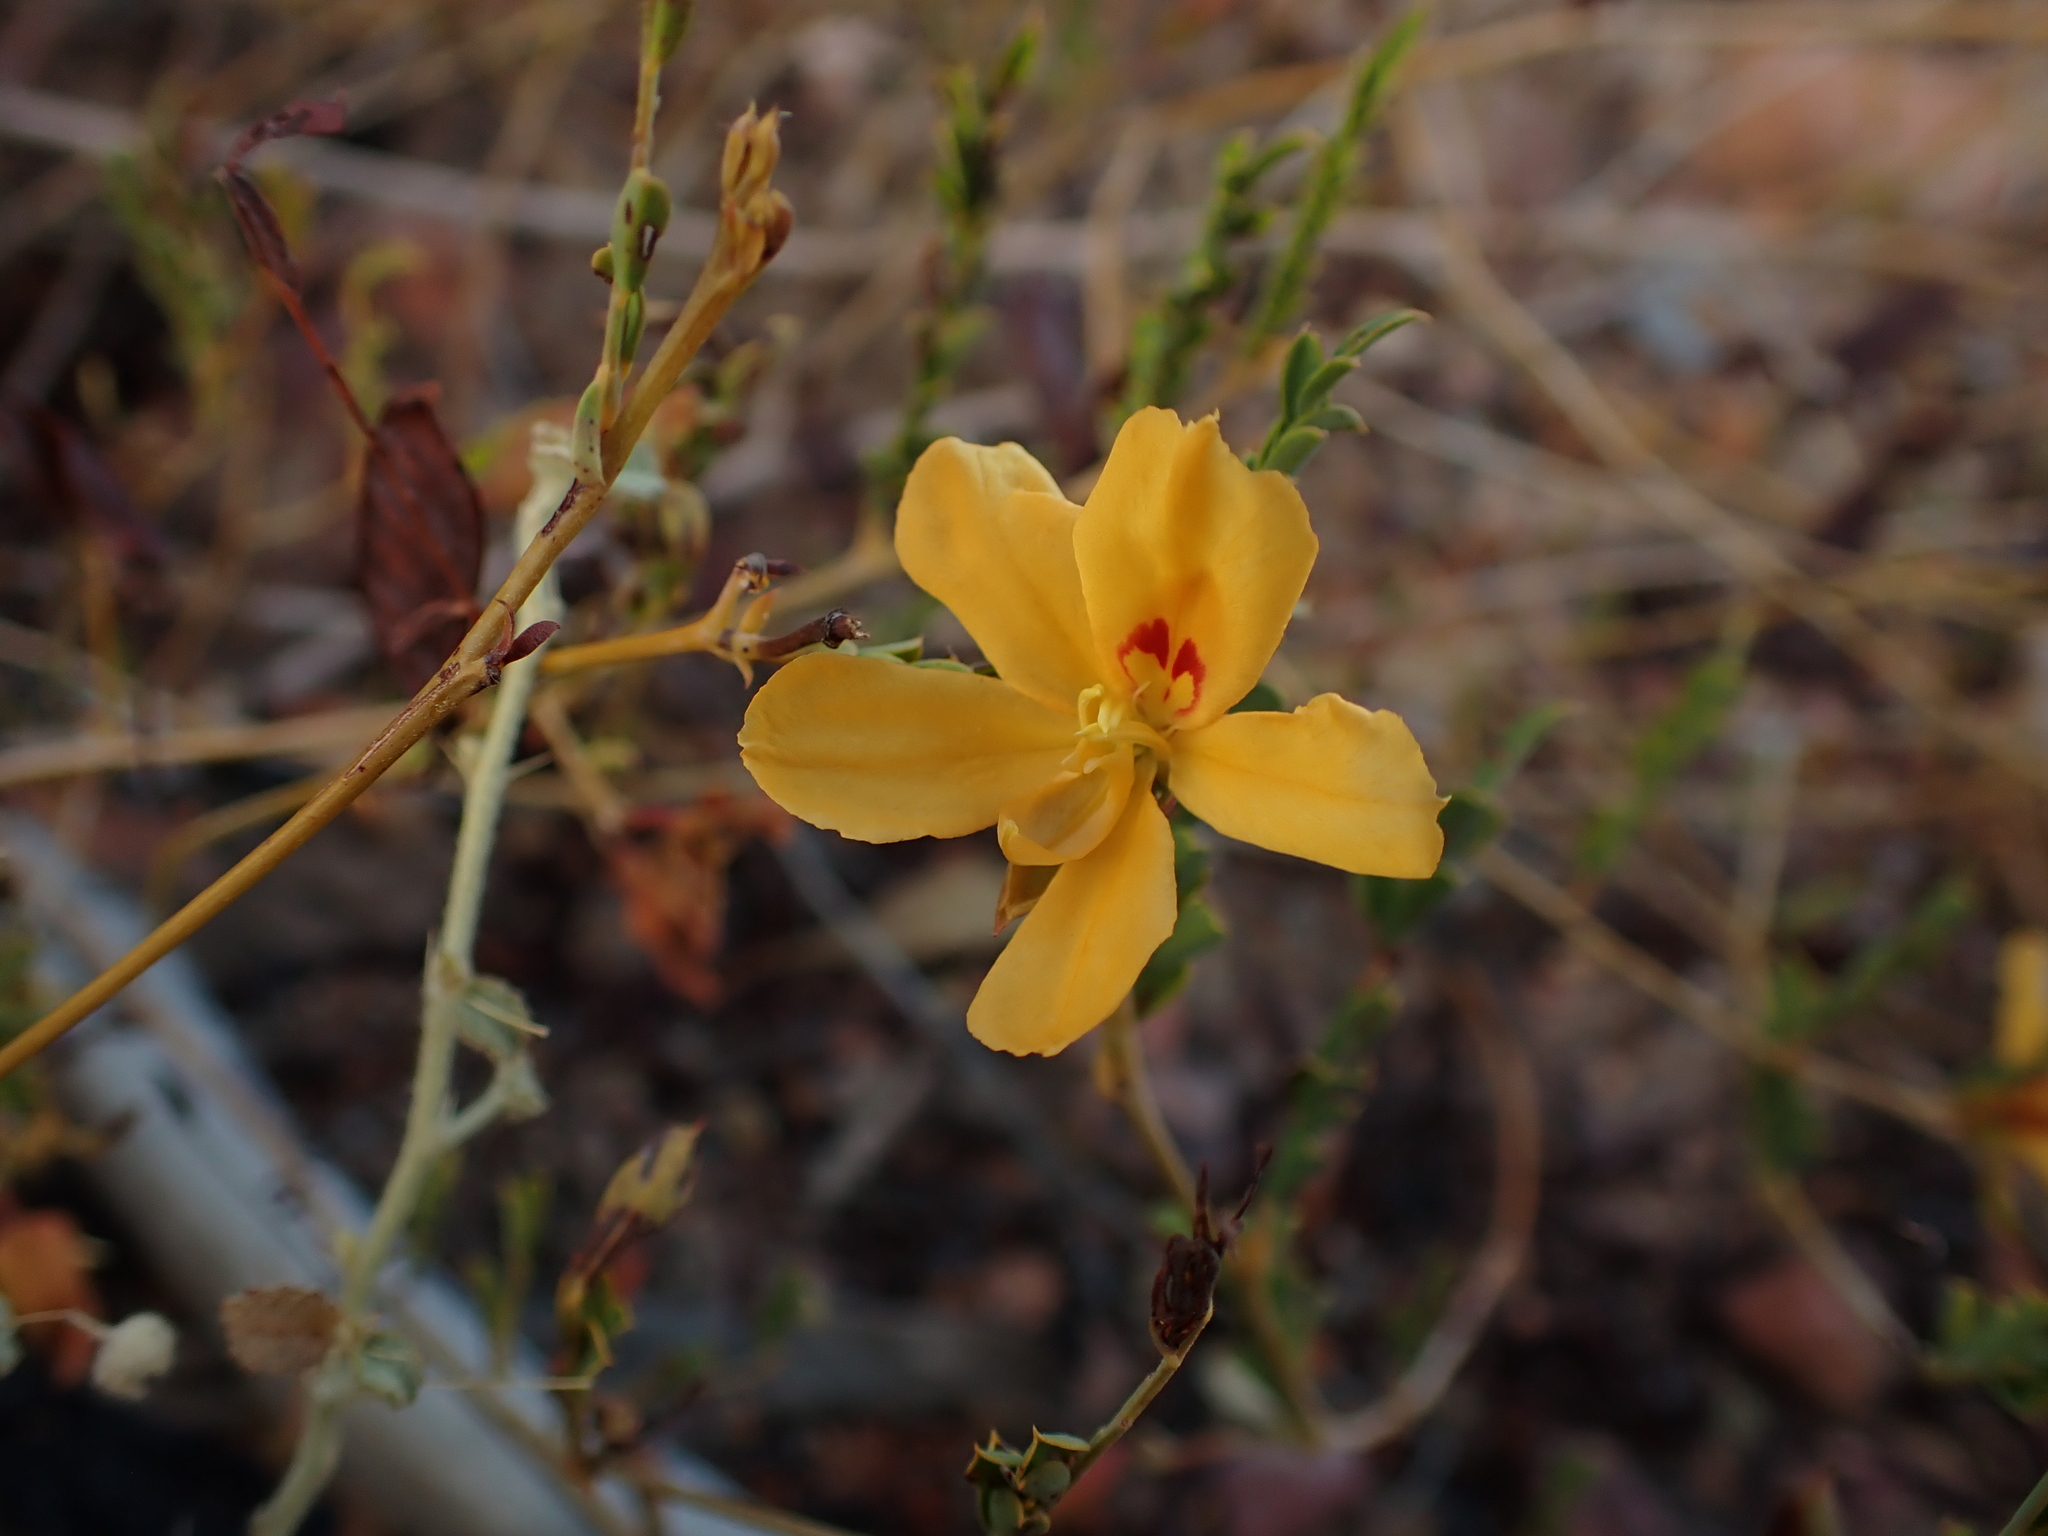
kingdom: Plantae
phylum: Tracheophyta
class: Magnoliopsida
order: Fabales
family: Fabaceae
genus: Petalostylis
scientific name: Petalostylis cassioides
